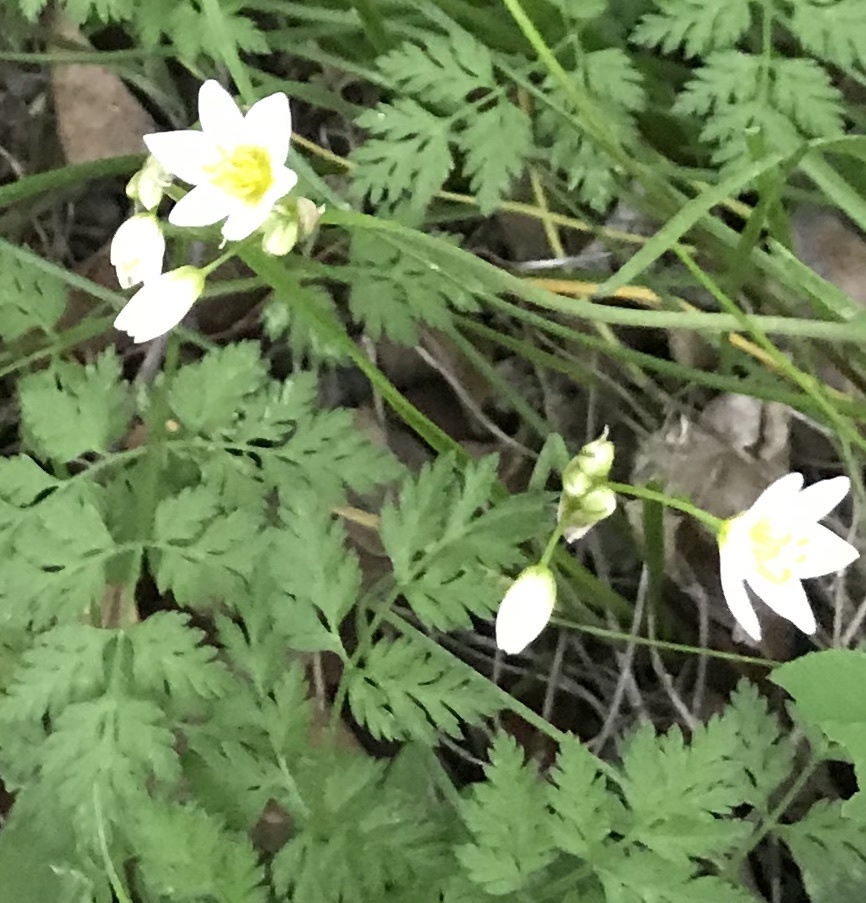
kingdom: Plantae
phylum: Tracheophyta
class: Liliopsida
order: Asparagales
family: Amaryllidaceae
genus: Nothoscordum
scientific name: Nothoscordum bivalve
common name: Crow-poison
